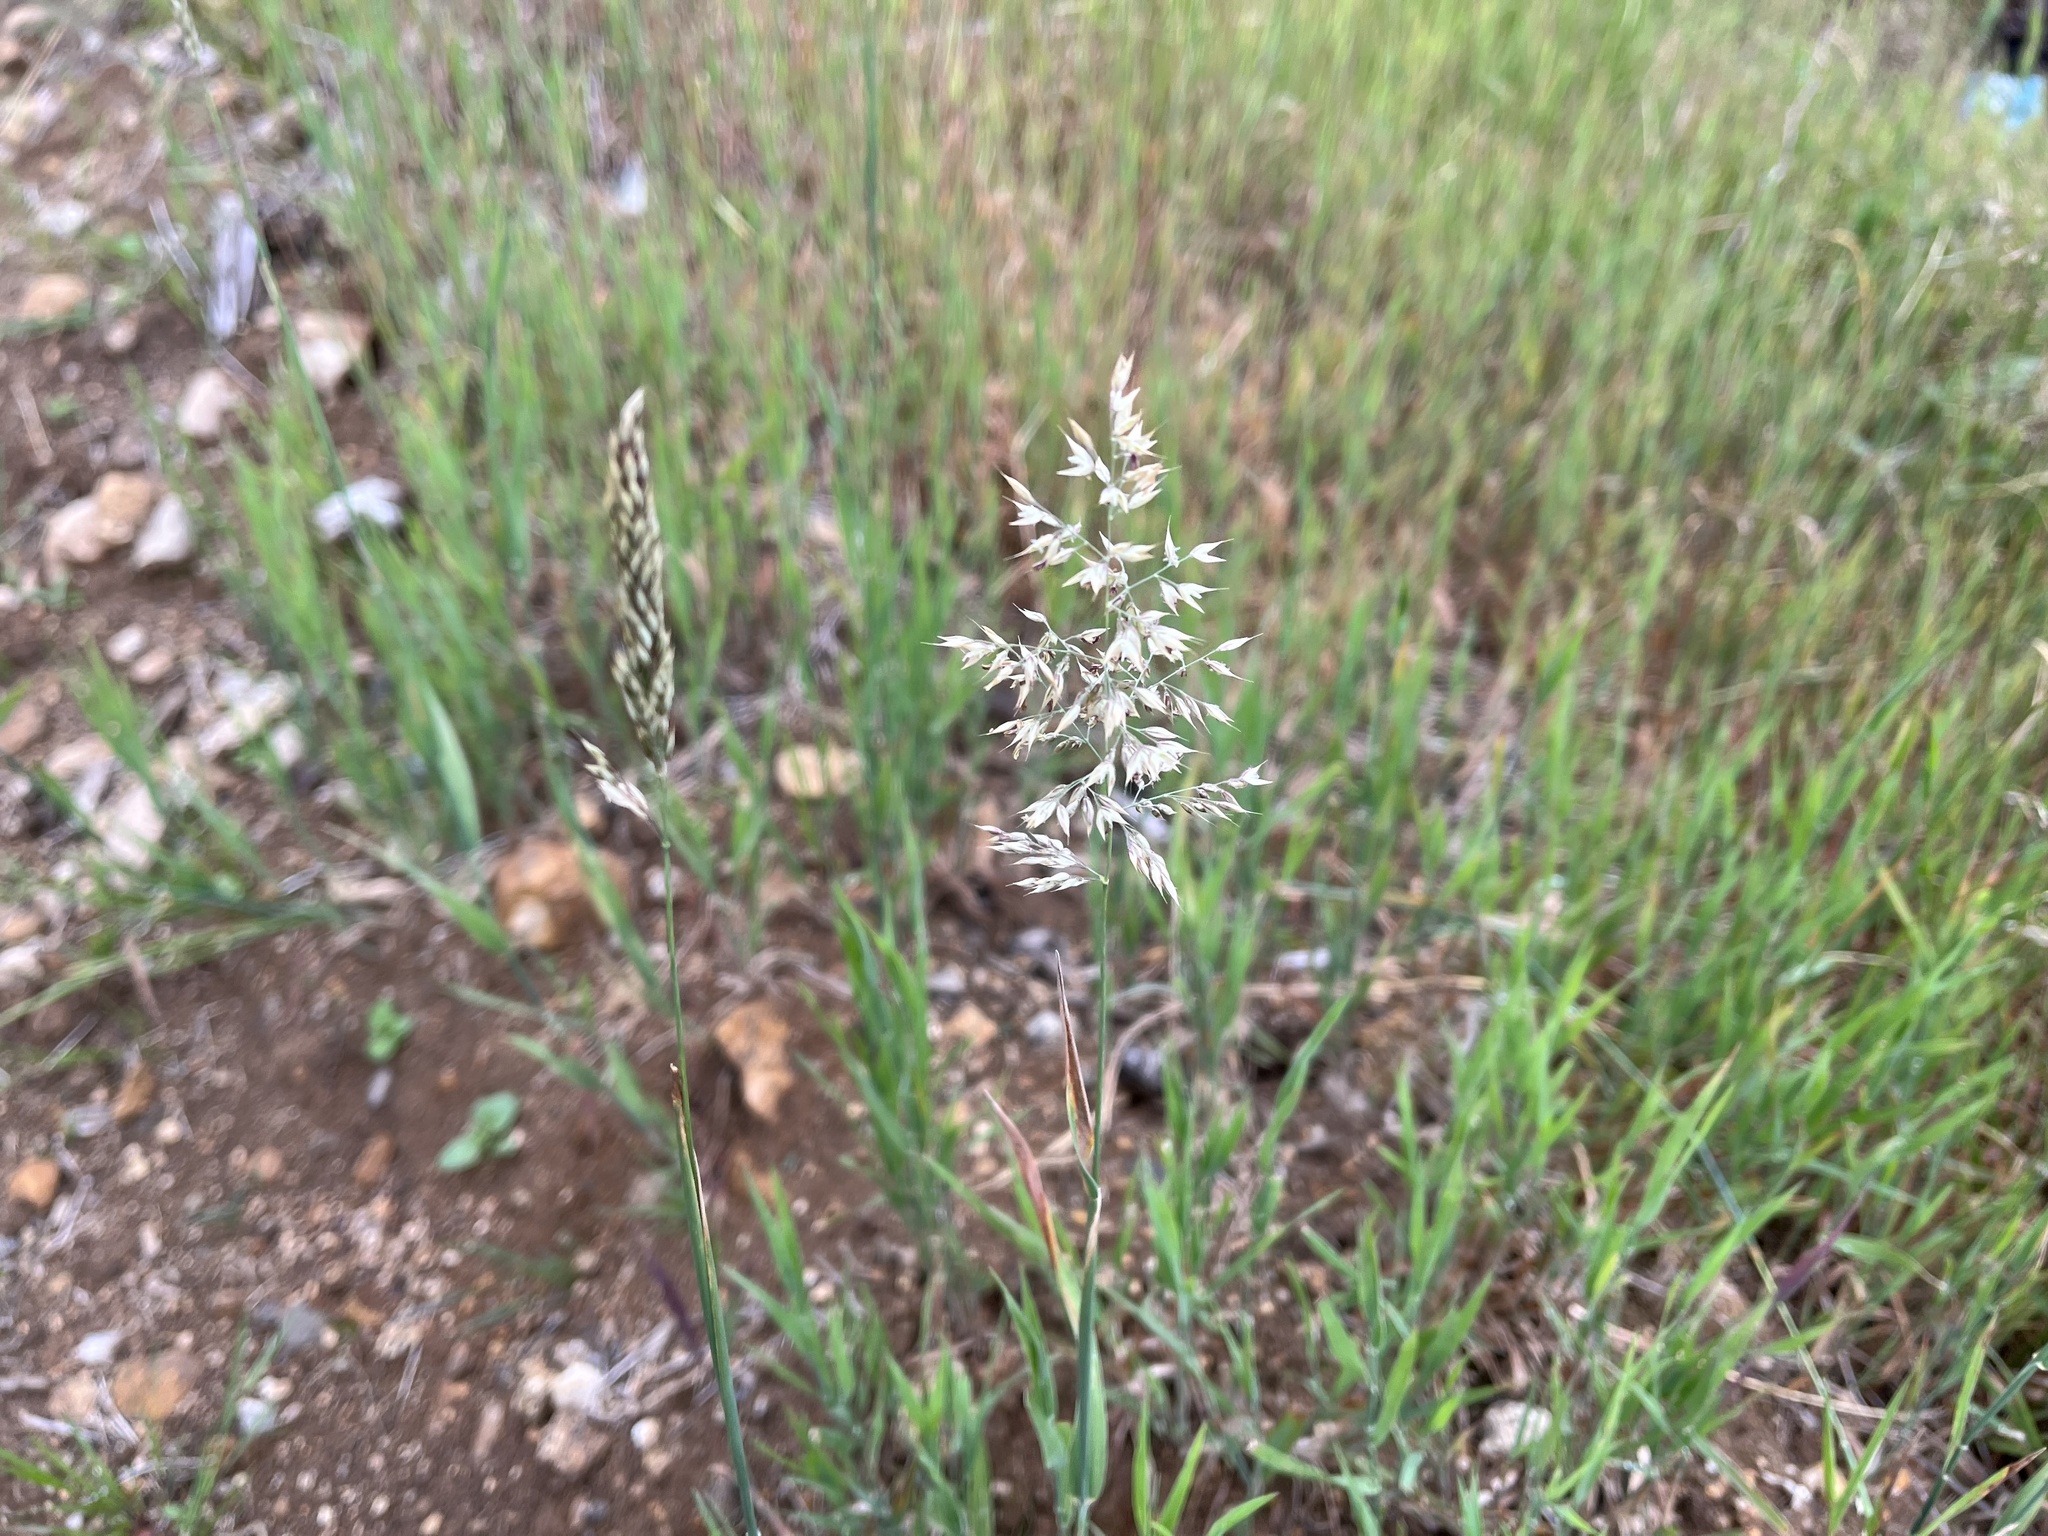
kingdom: Plantae
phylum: Tracheophyta
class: Liliopsida
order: Poales
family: Poaceae
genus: Holcus
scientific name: Holcus mollis
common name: Creeping velvetgrass
